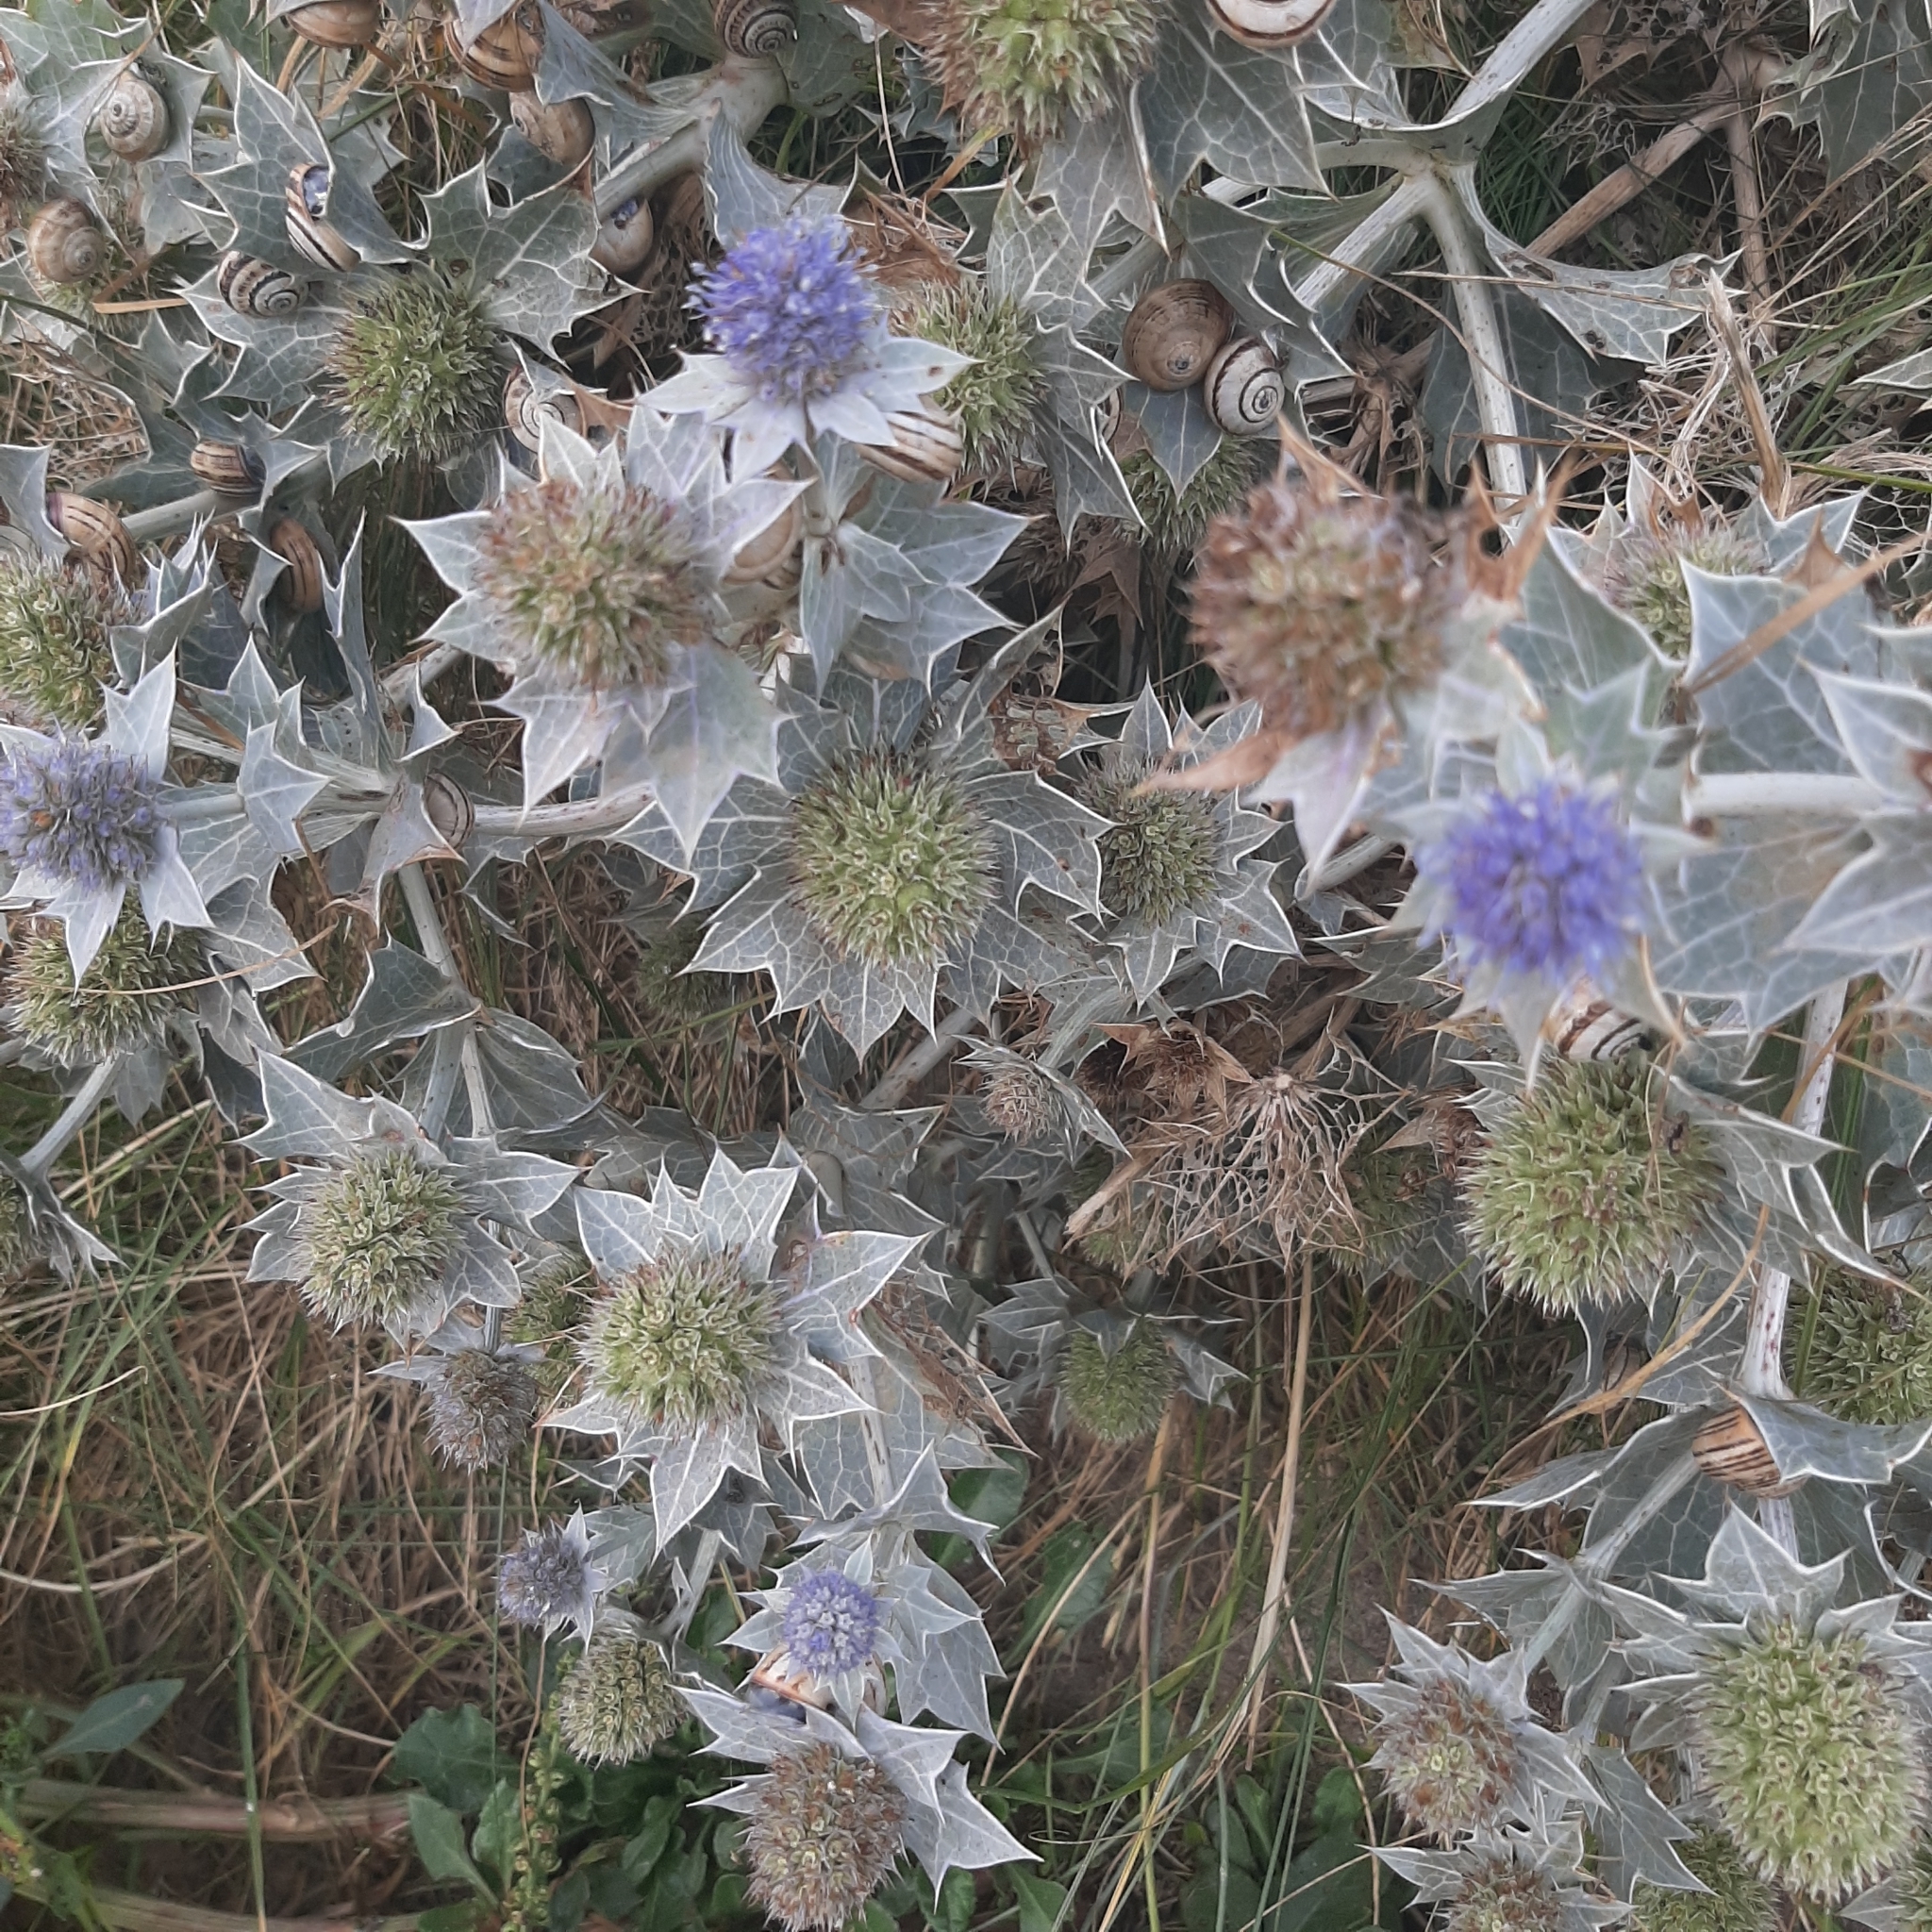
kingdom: Plantae
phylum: Tracheophyta
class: Magnoliopsida
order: Apiales
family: Apiaceae
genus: Eryngium
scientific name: Eryngium maritimum
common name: Sea-holly
